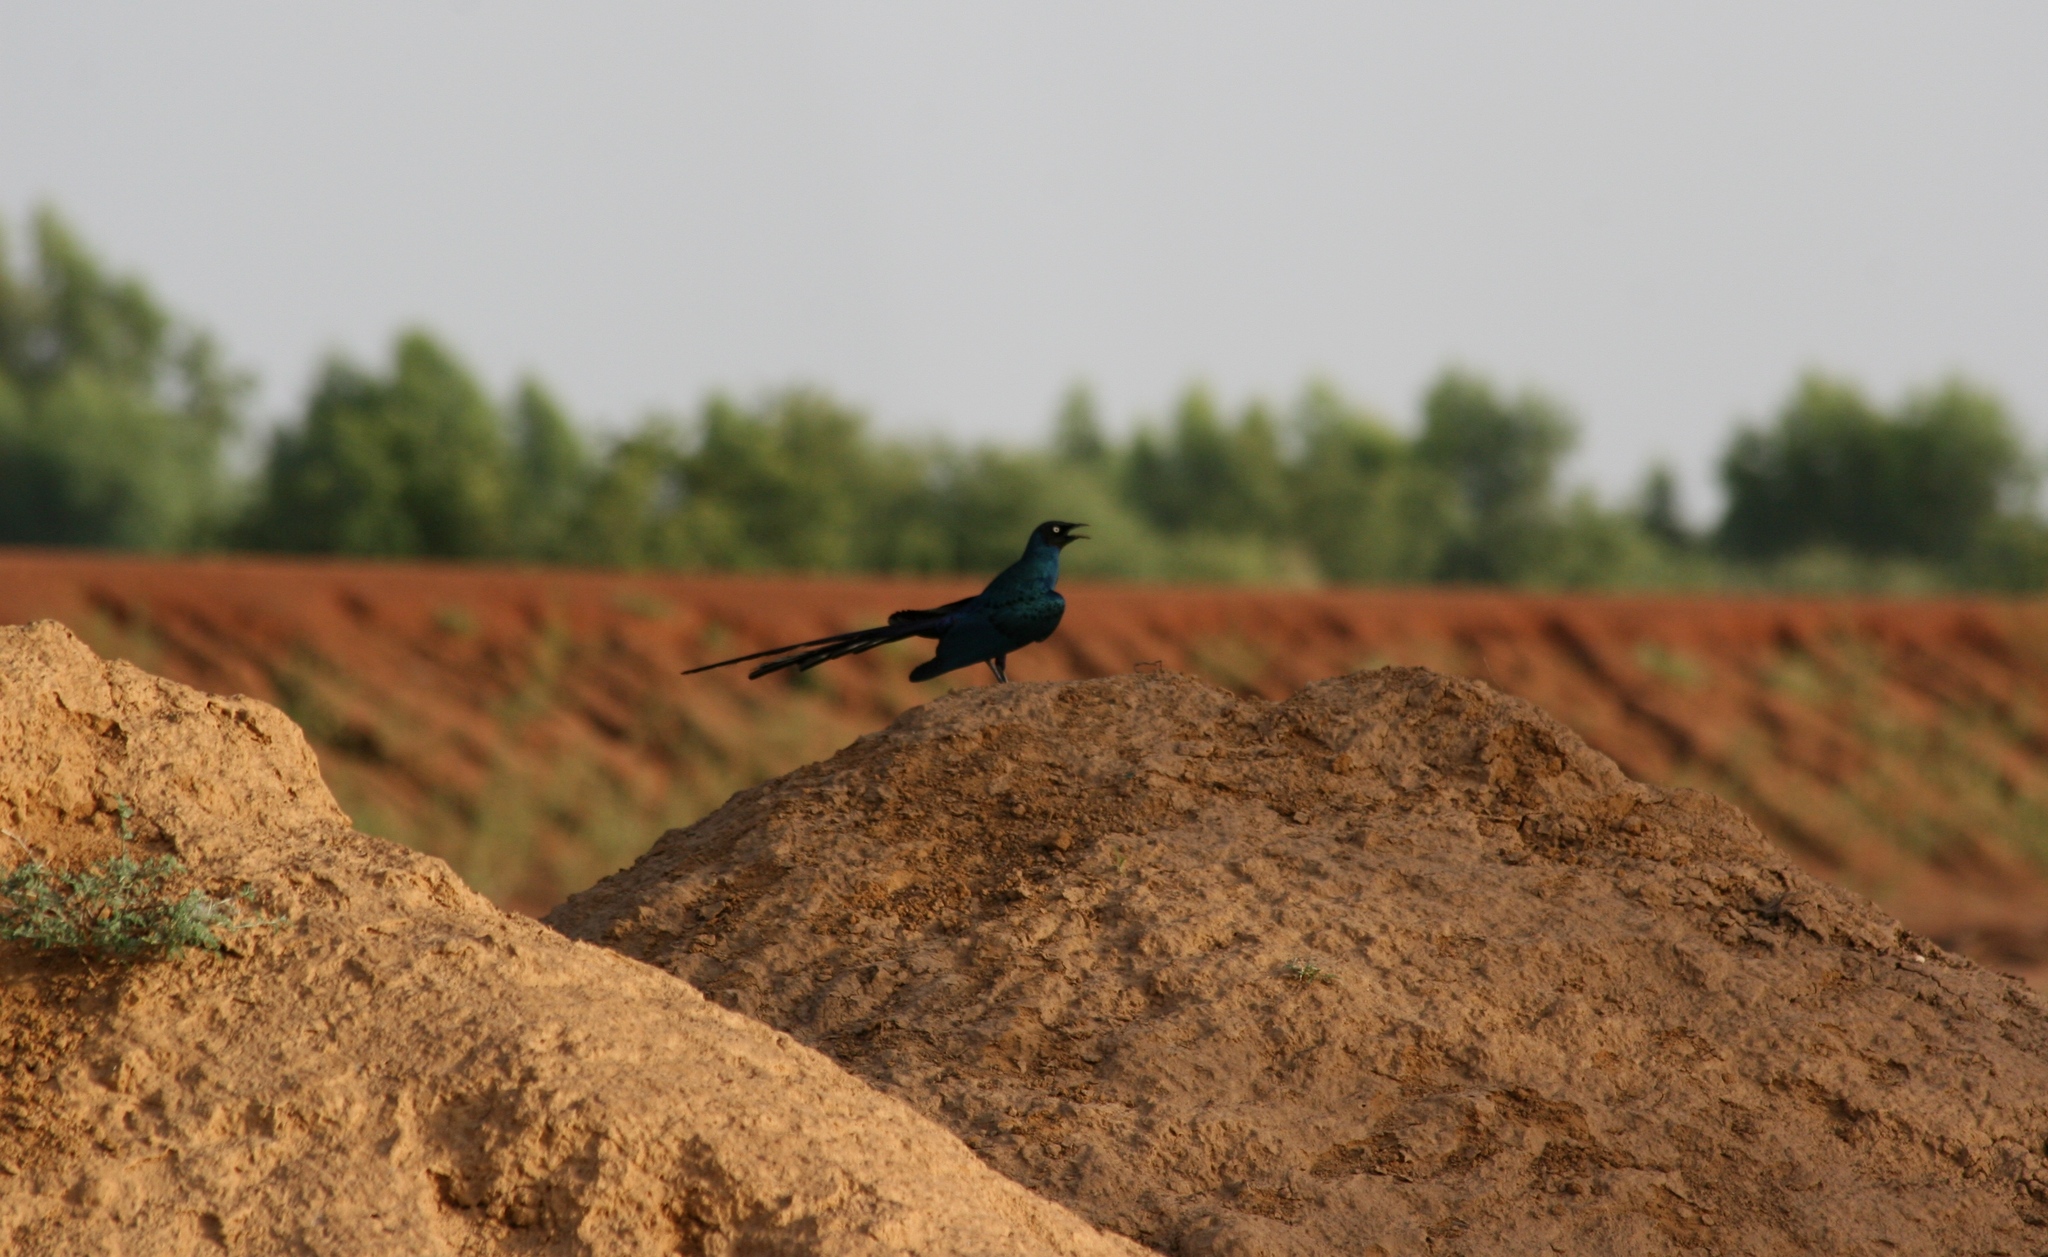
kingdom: Animalia
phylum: Chordata
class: Aves
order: Passeriformes
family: Sturnidae
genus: Lamprotornis
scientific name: Lamprotornis caudatus
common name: Long-tailed glossy starling
